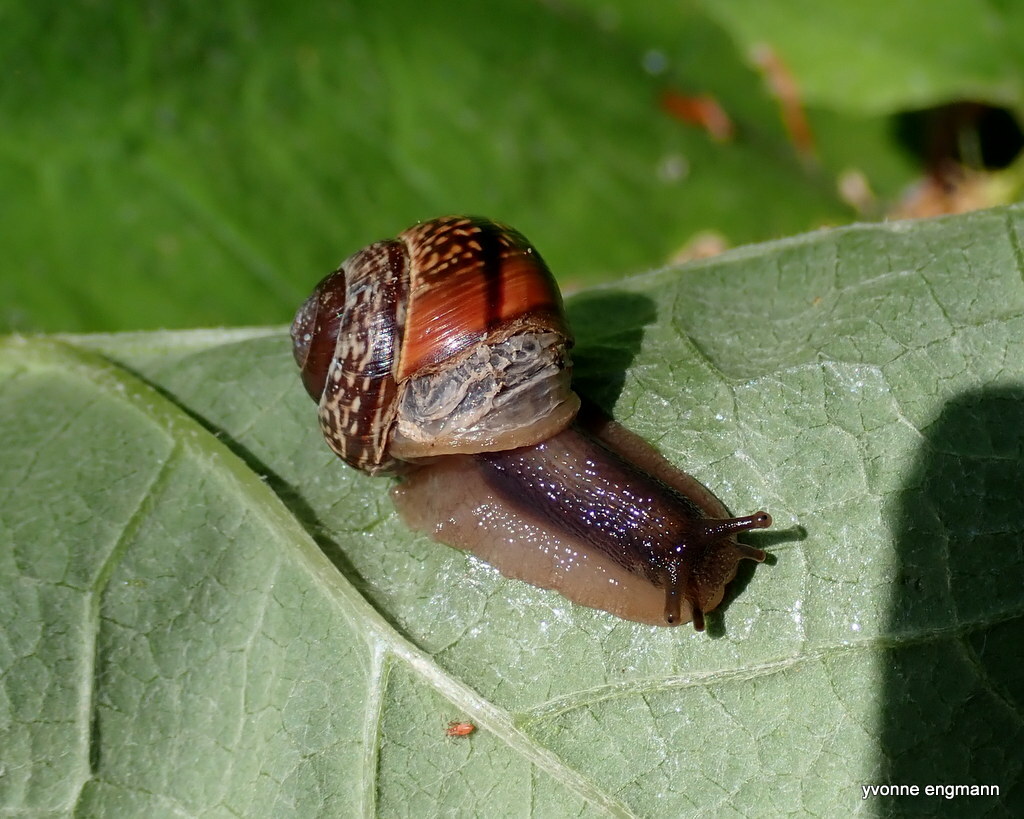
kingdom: Animalia
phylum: Mollusca
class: Gastropoda
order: Stylommatophora
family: Helicidae
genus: Arianta
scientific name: Arianta arbustorum
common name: Copse snail
